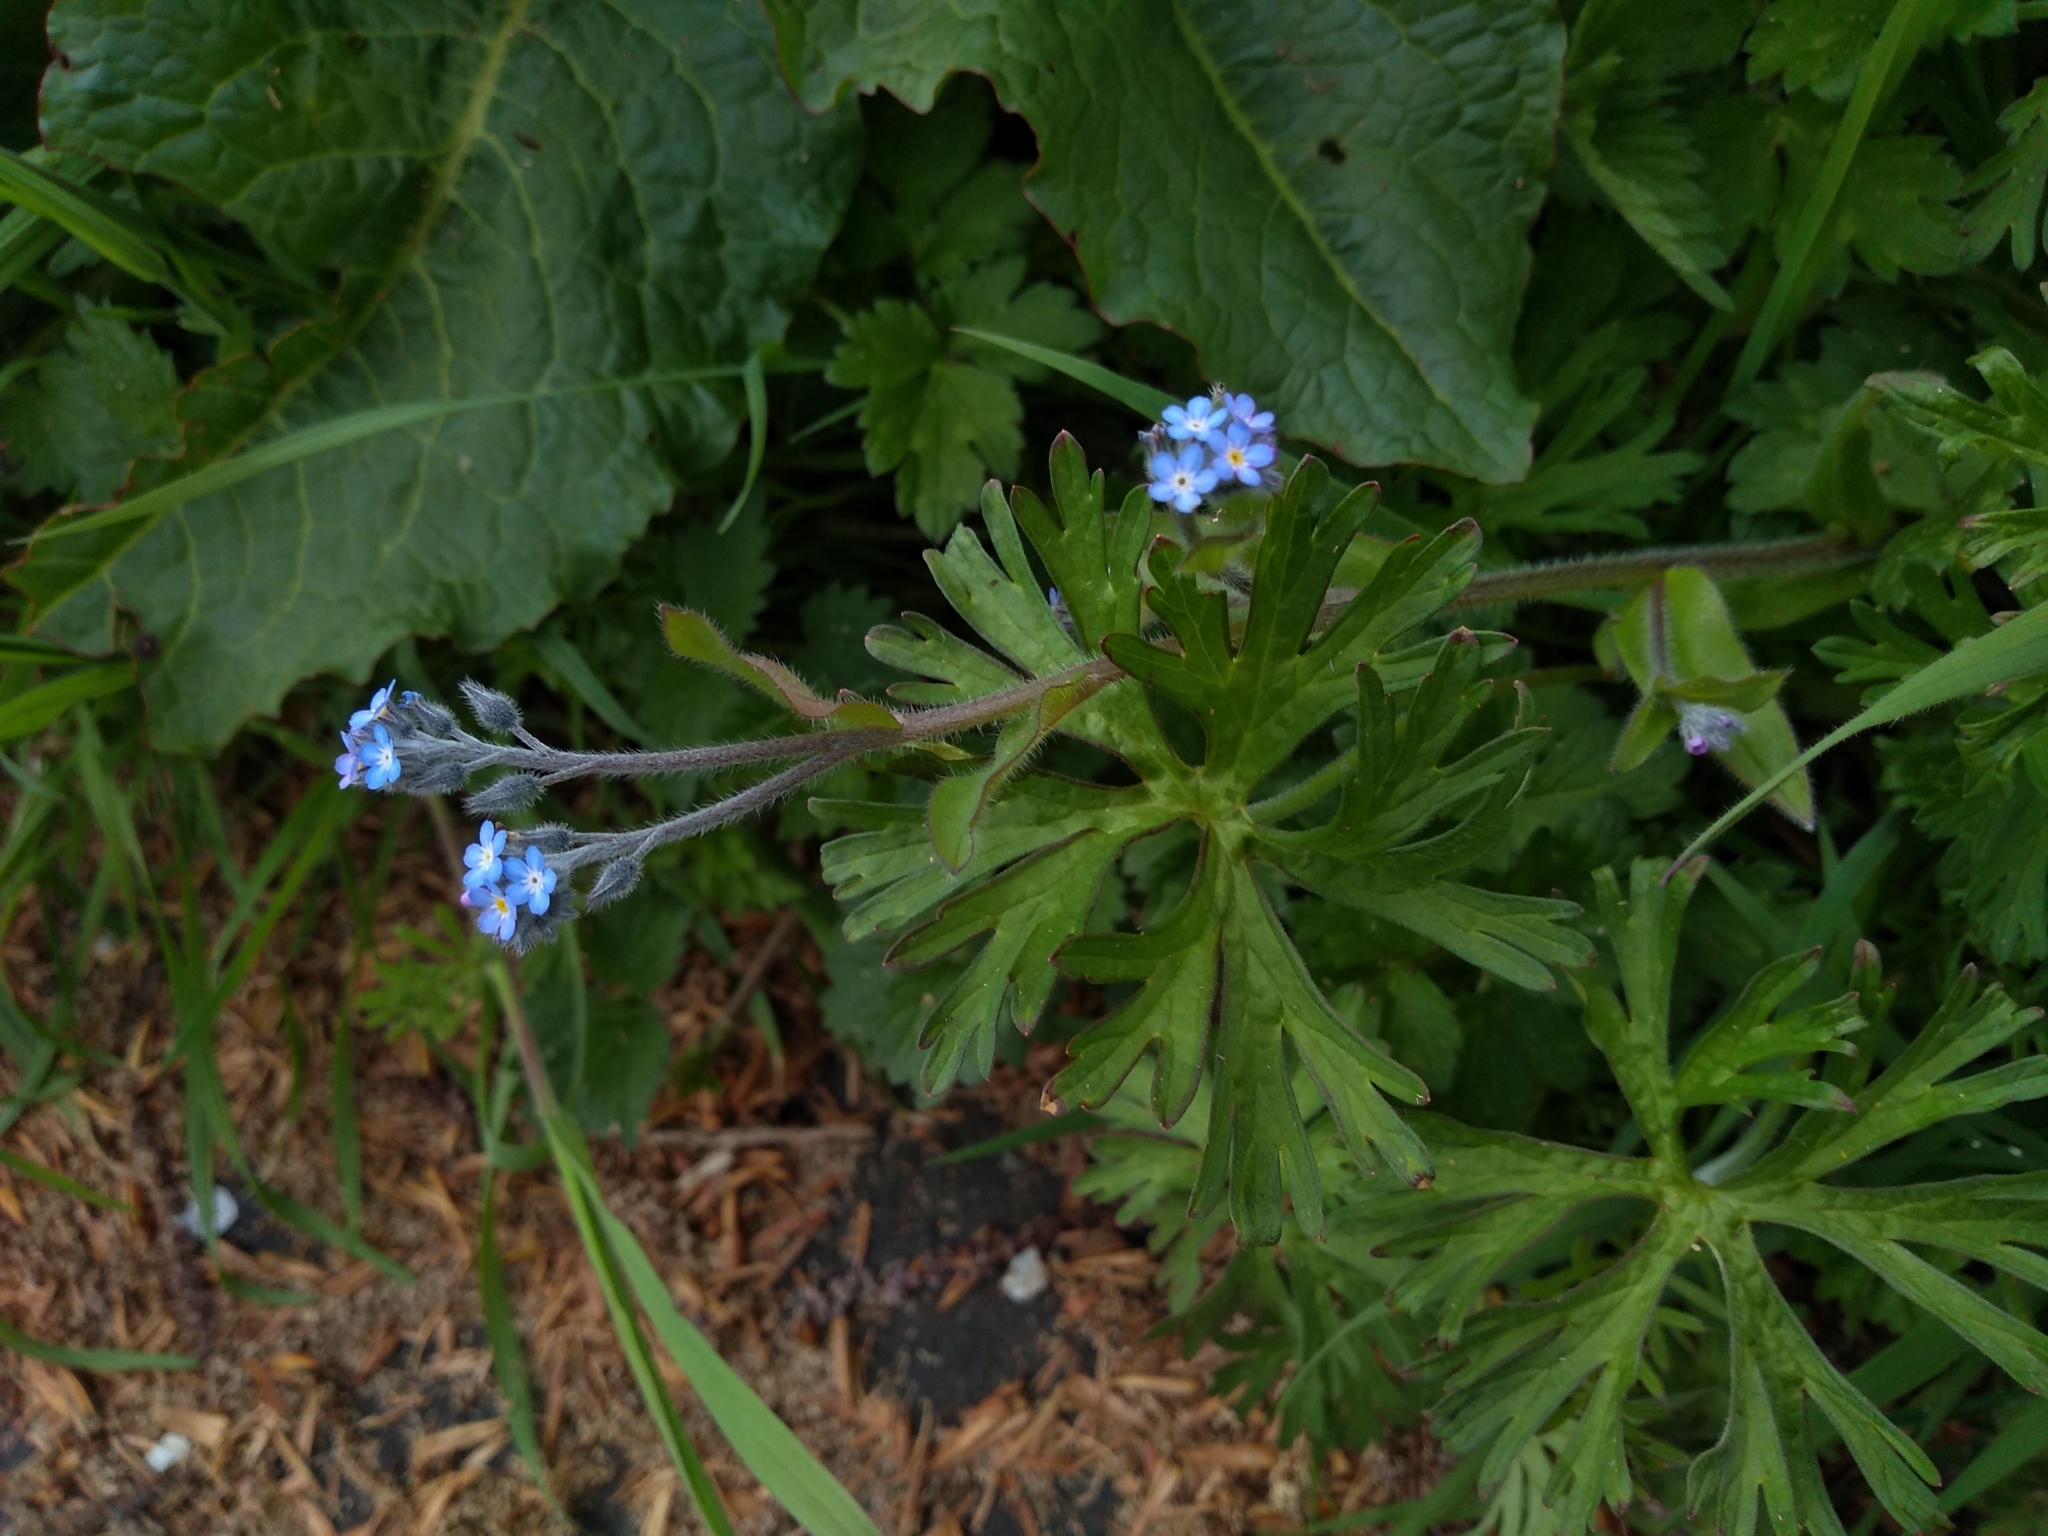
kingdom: Plantae
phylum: Tracheophyta
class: Magnoliopsida
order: Boraginales
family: Boraginaceae
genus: Myosotis
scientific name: Myosotis arvensis
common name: Field forget-me-not
